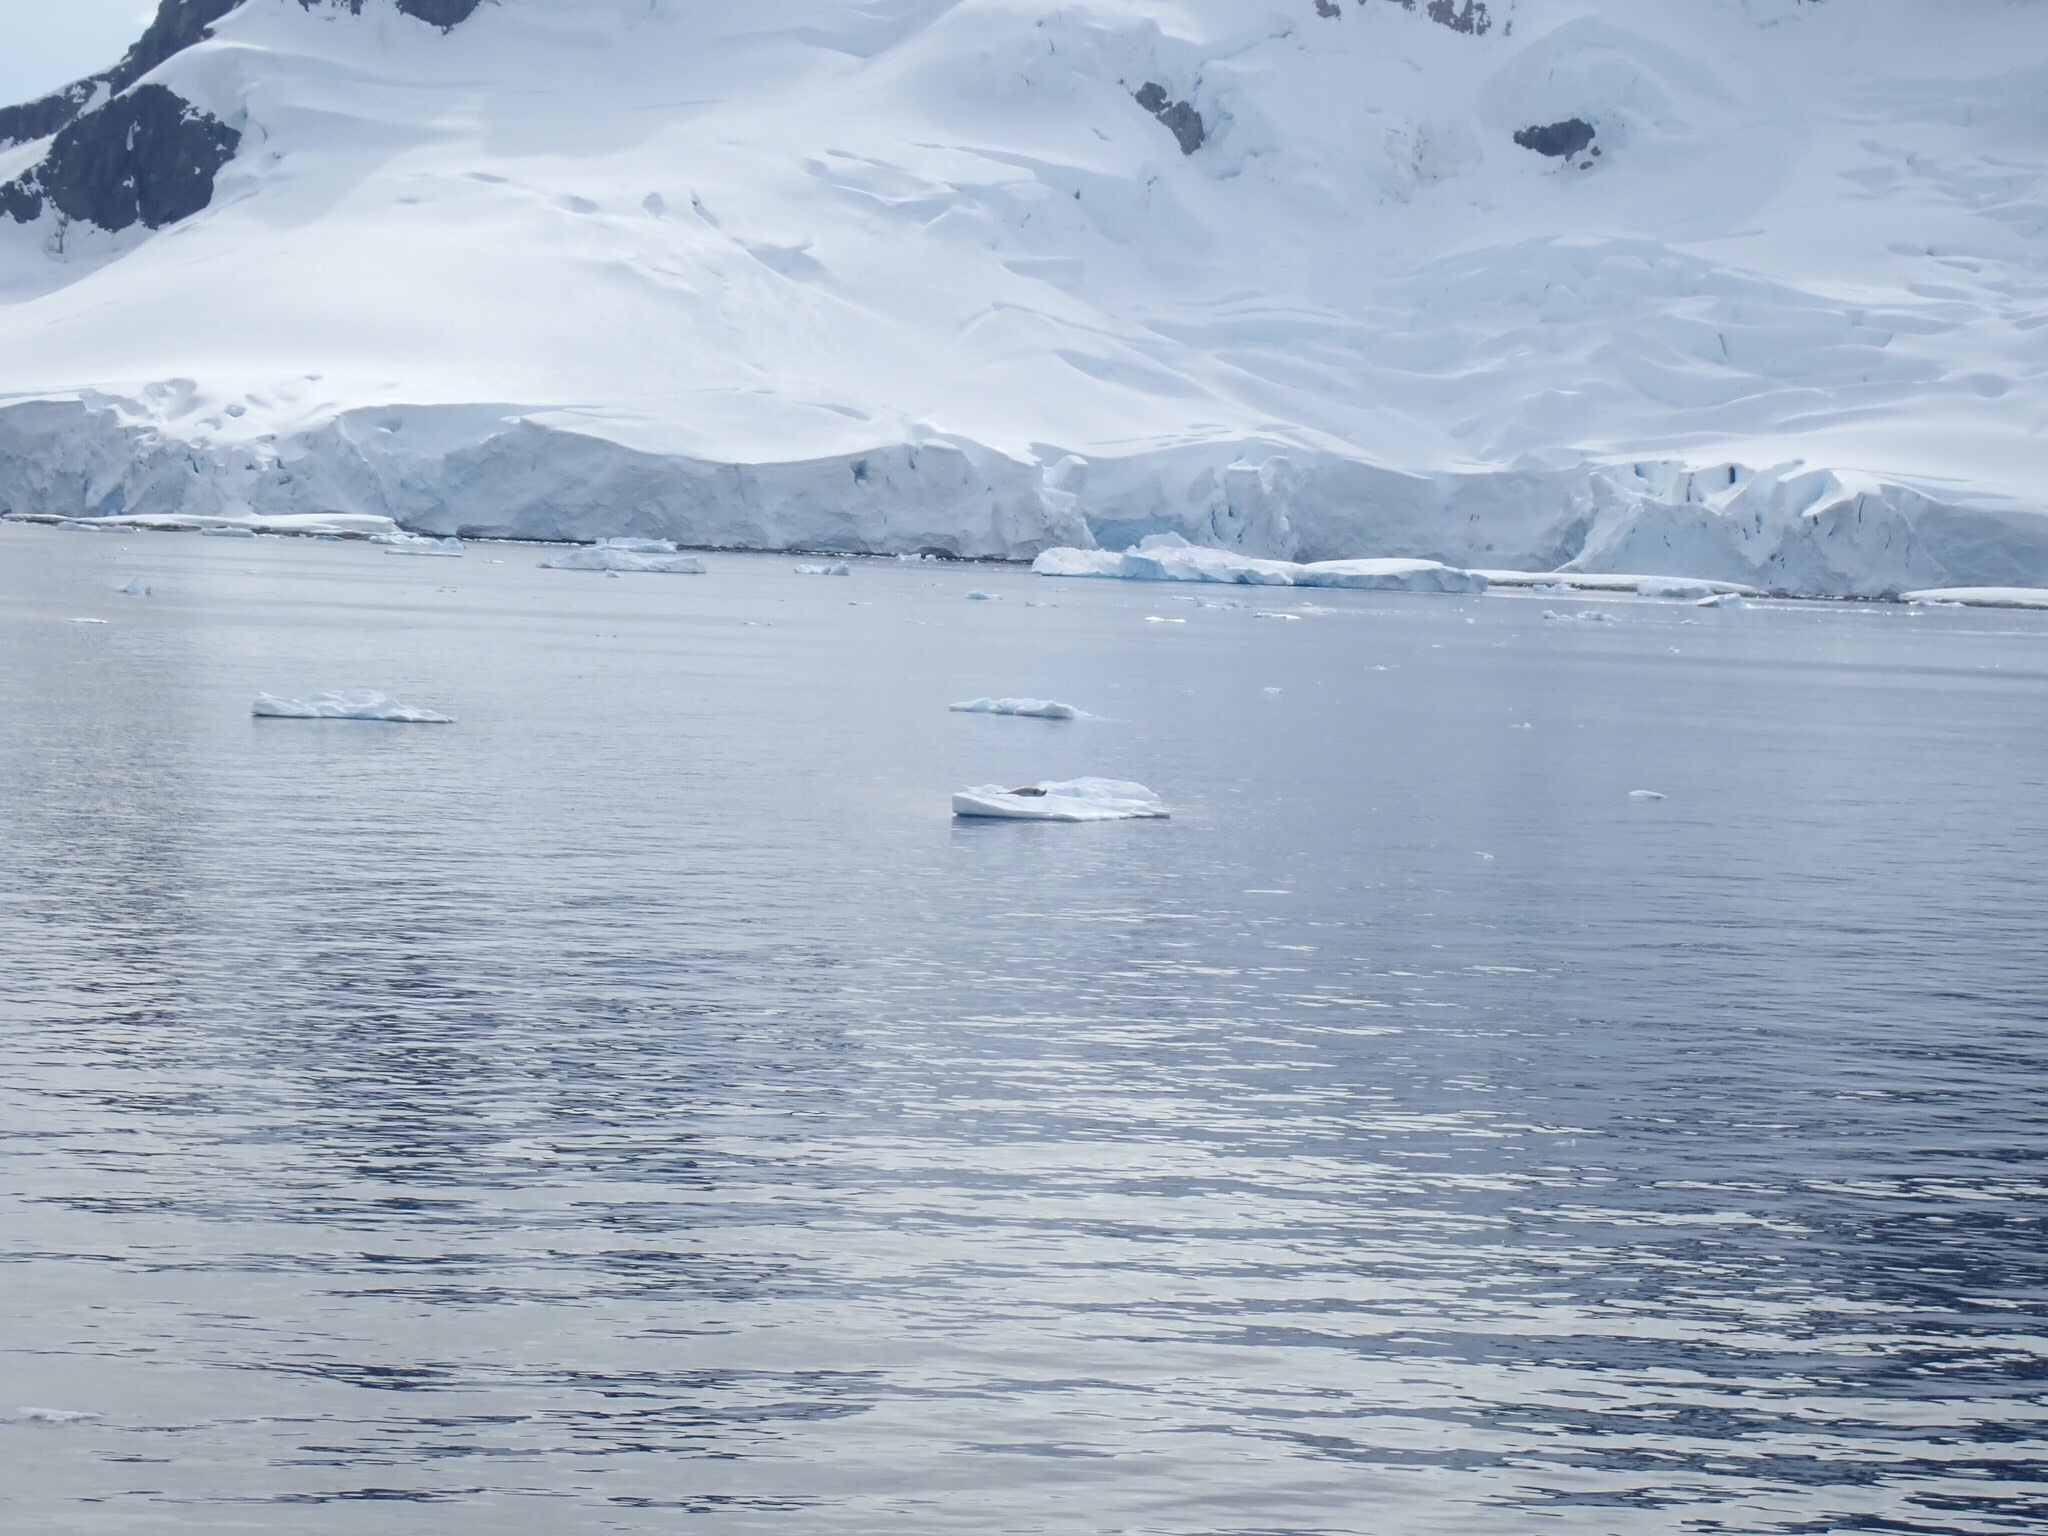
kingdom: Animalia
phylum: Chordata
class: Mammalia
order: Carnivora
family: Phocidae
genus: Lobodon
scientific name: Lobodon carcinophaga
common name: Crabeater seal
